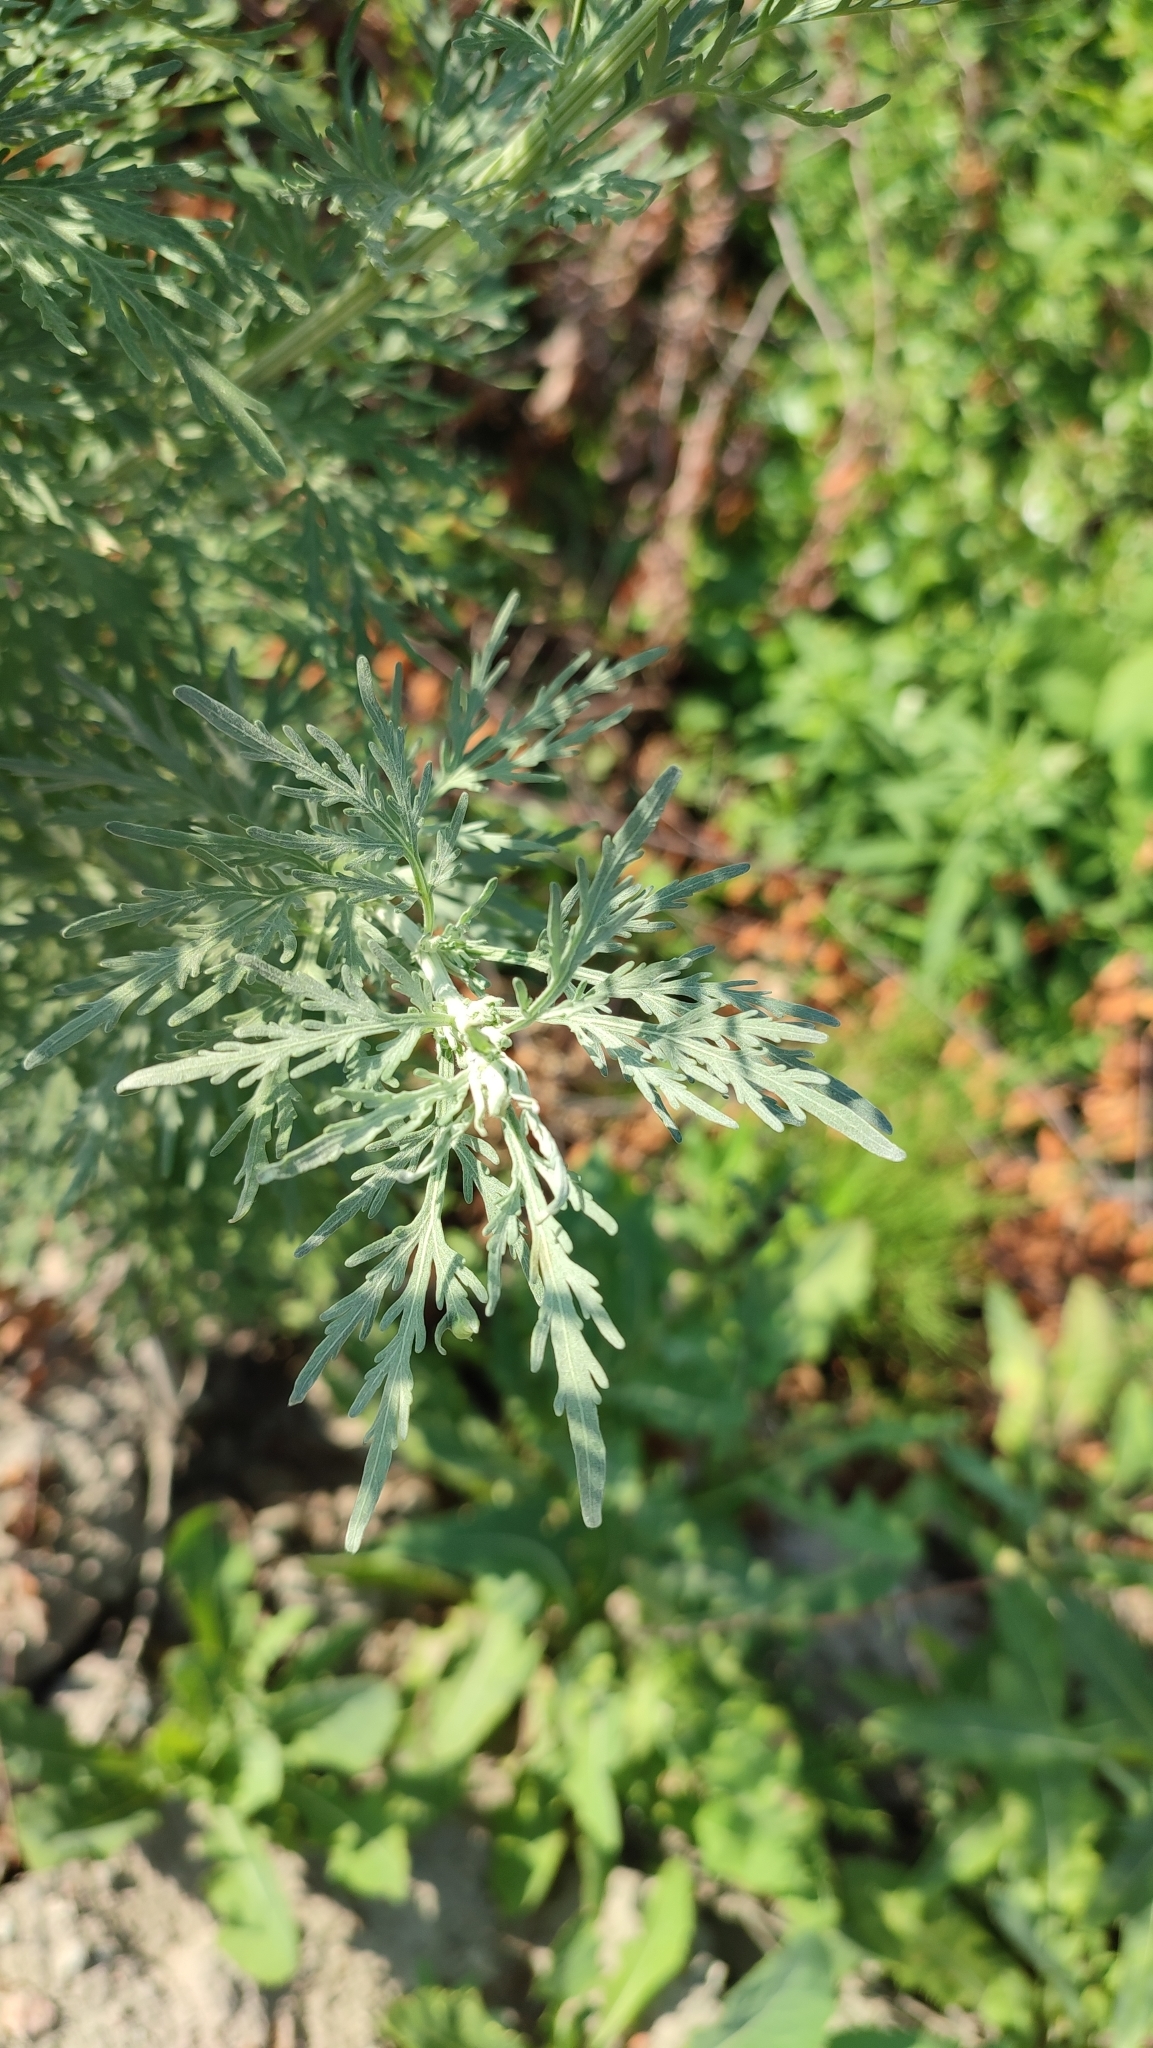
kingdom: Plantae
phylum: Tracheophyta
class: Magnoliopsida
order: Asterales
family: Asteraceae
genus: Artemisia
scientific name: Artemisia sieversiana
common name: Sieversian wormwood
